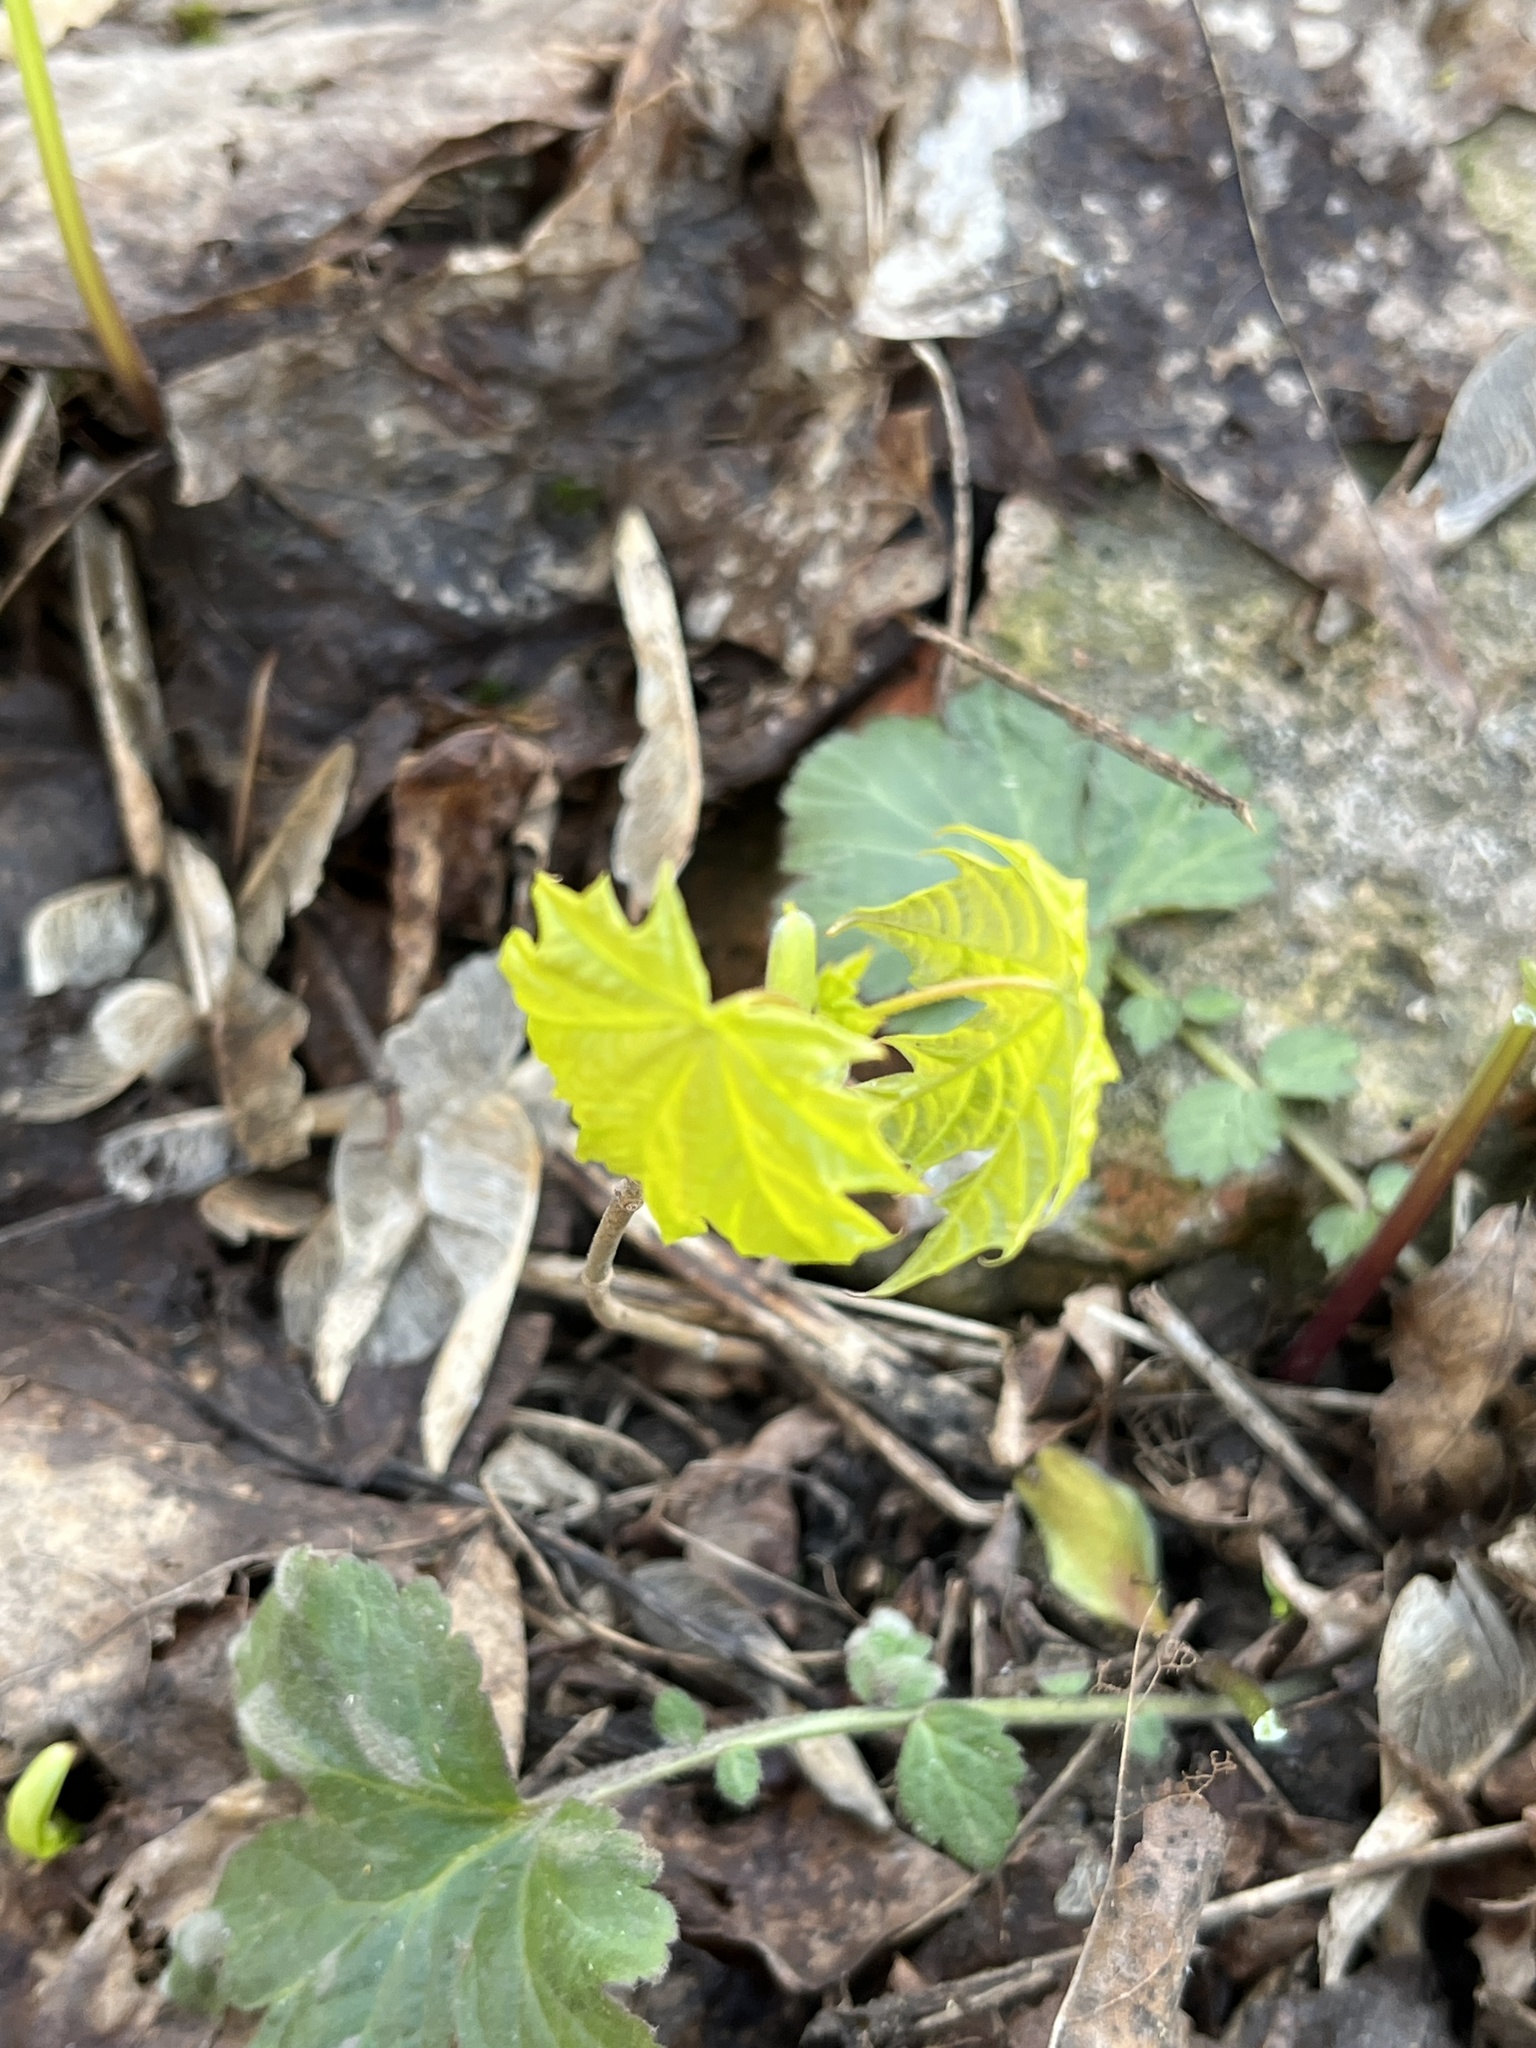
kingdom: Plantae
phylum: Tracheophyta
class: Magnoliopsida
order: Sapindales
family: Sapindaceae
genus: Acer
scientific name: Acer platanoides
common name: Norway maple
